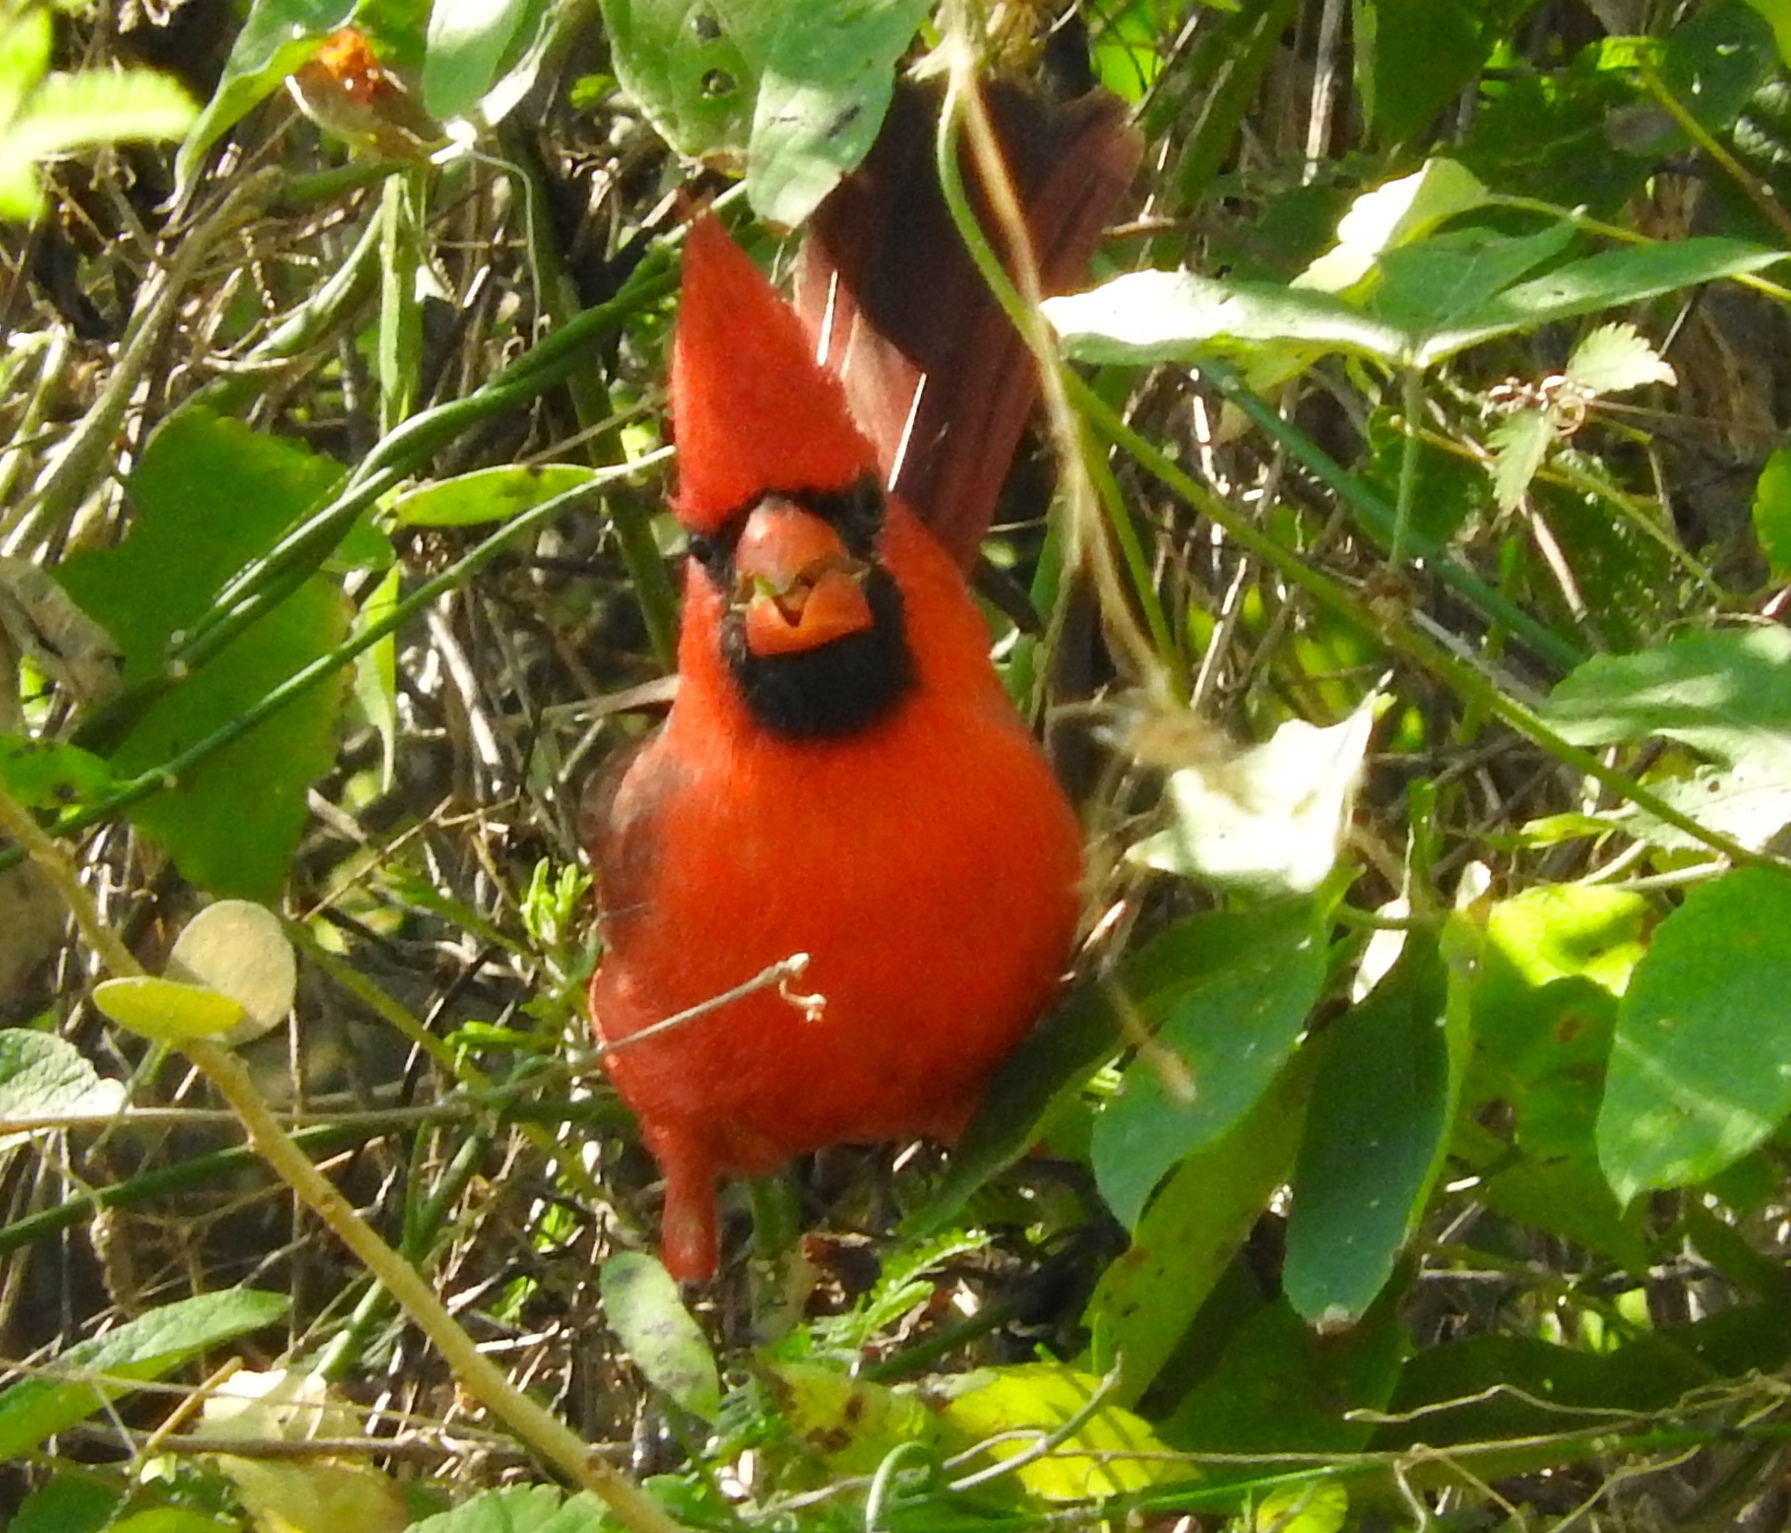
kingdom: Animalia
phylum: Chordata
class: Aves
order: Passeriformes
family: Cardinalidae
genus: Cardinalis
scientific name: Cardinalis cardinalis
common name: Northern cardinal
